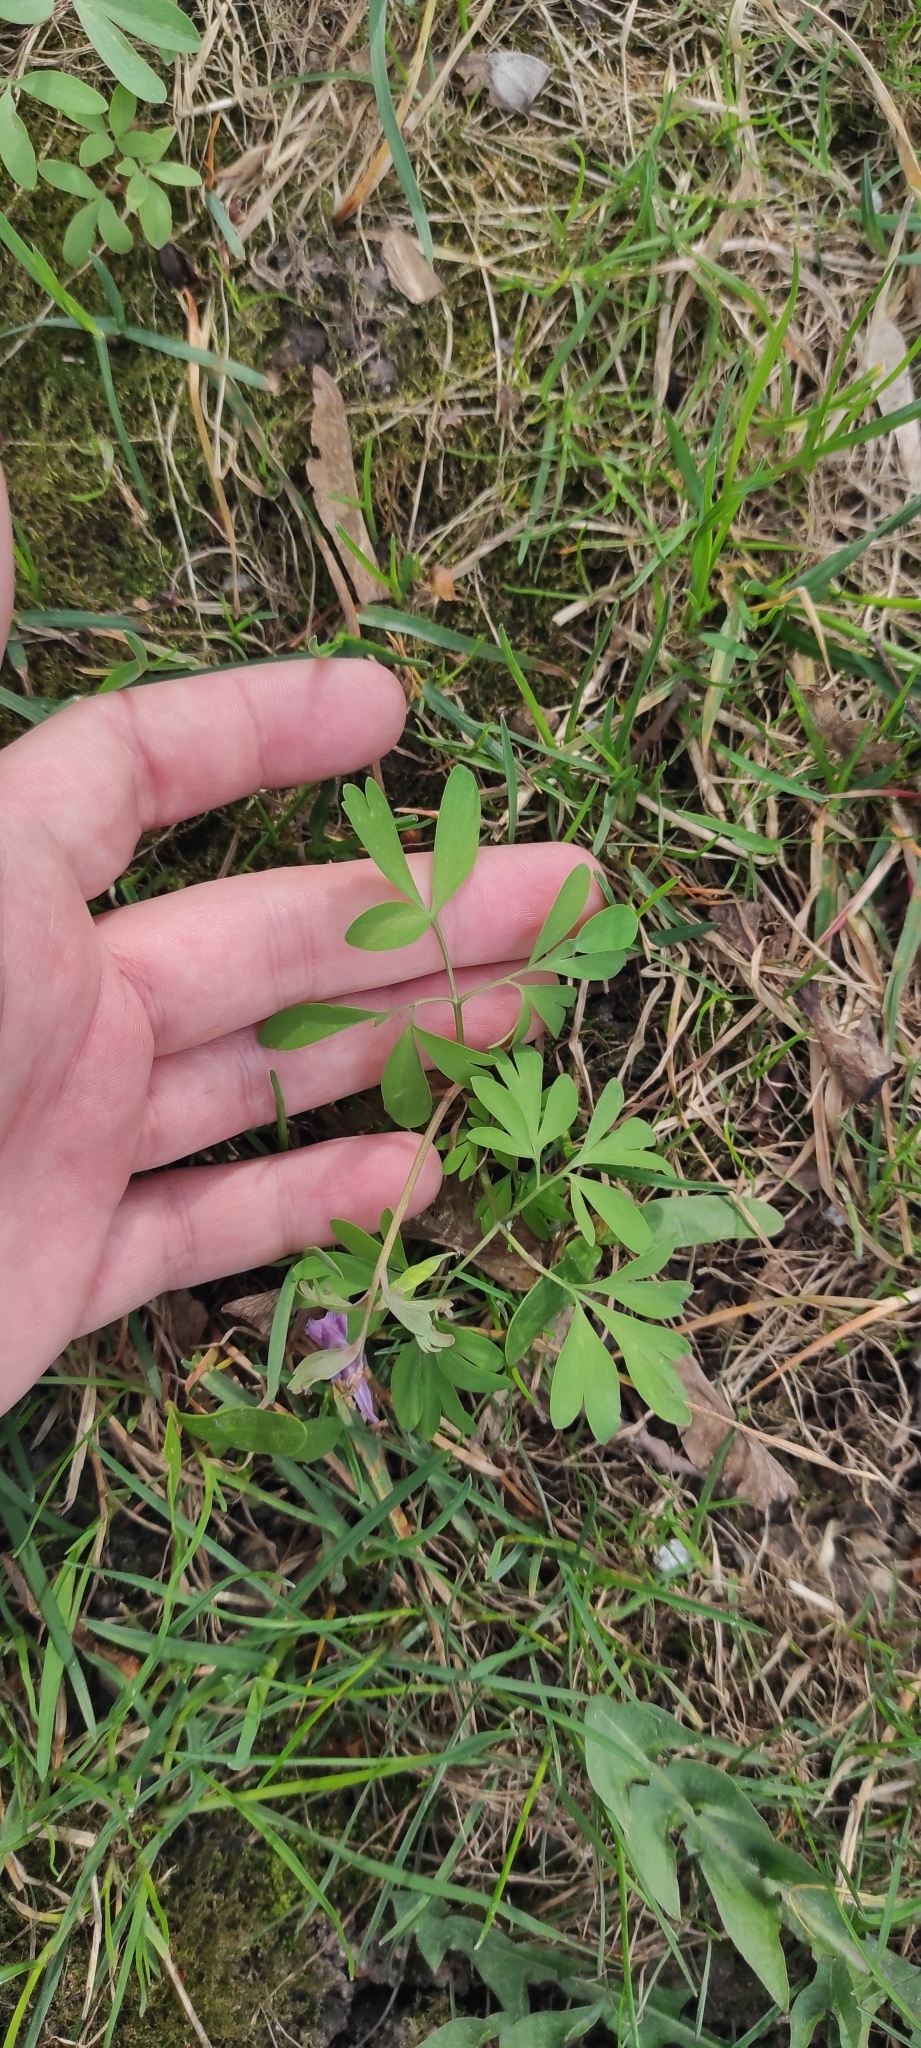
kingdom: Plantae
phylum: Tracheophyta
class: Magnoliopsida
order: Ranunculales
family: Papaveraceae
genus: Corydalis
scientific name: Corydalis solida
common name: Bird-in-a-bush
